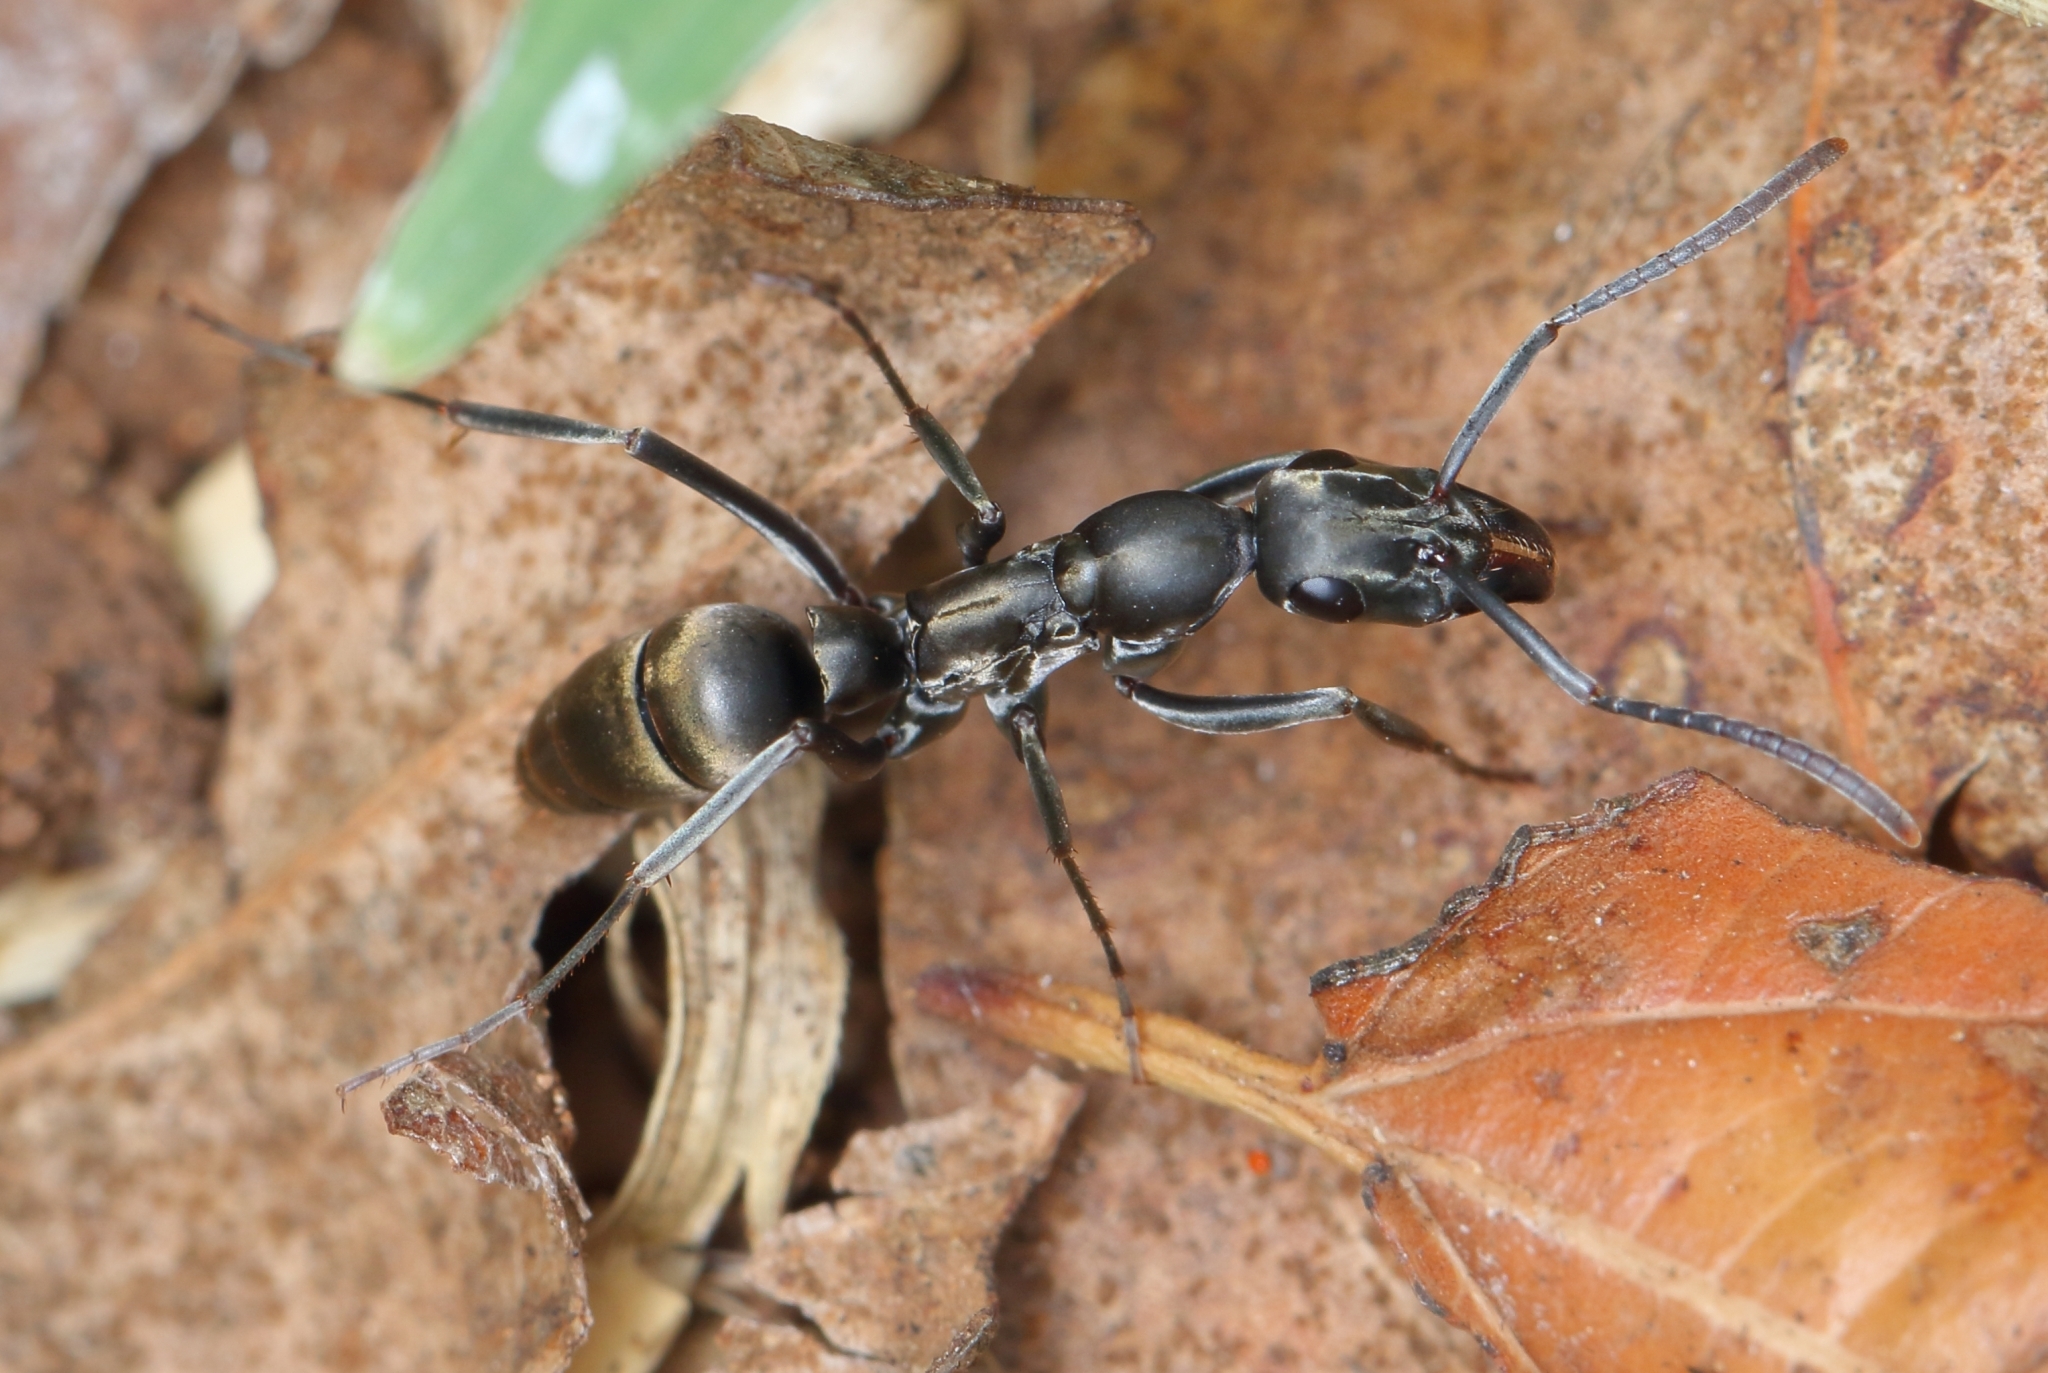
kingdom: Animalia
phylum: Arthropoda
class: Insecta
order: Hymenoptera
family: Formicidae
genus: Bothroponera
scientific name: Bothroponera berthoudi
